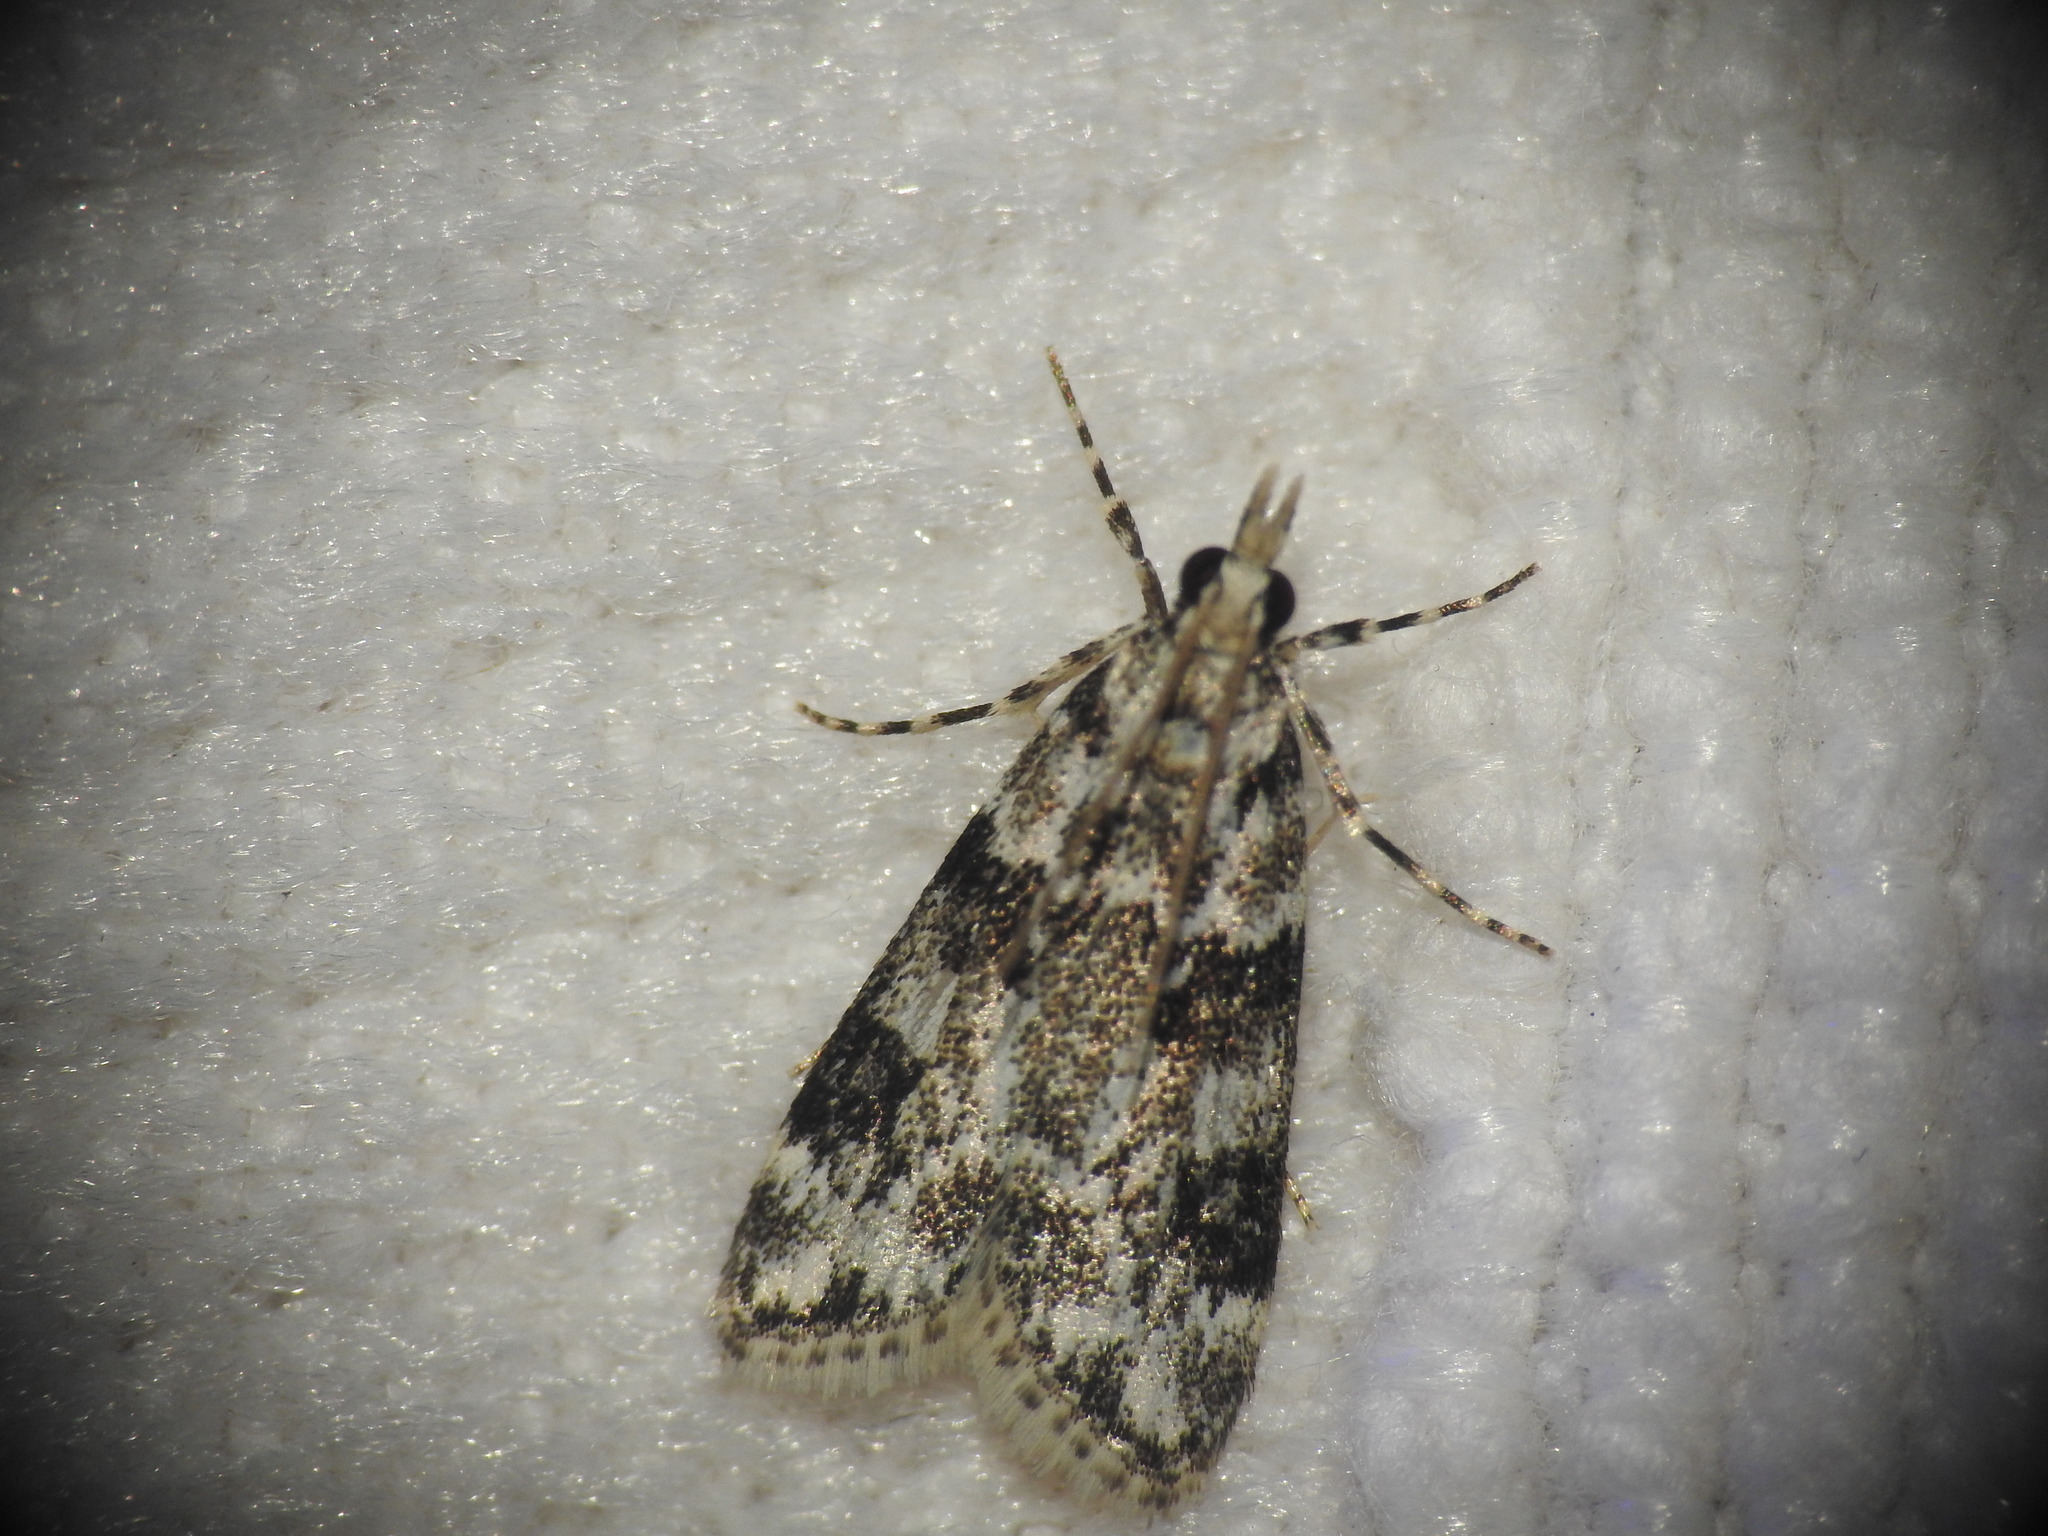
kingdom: Animalia
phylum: Arthropoda
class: Insecta
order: Lepidoptera
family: Crambidae
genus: Eudonia
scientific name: Eudonia delunella
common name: Pied grey
